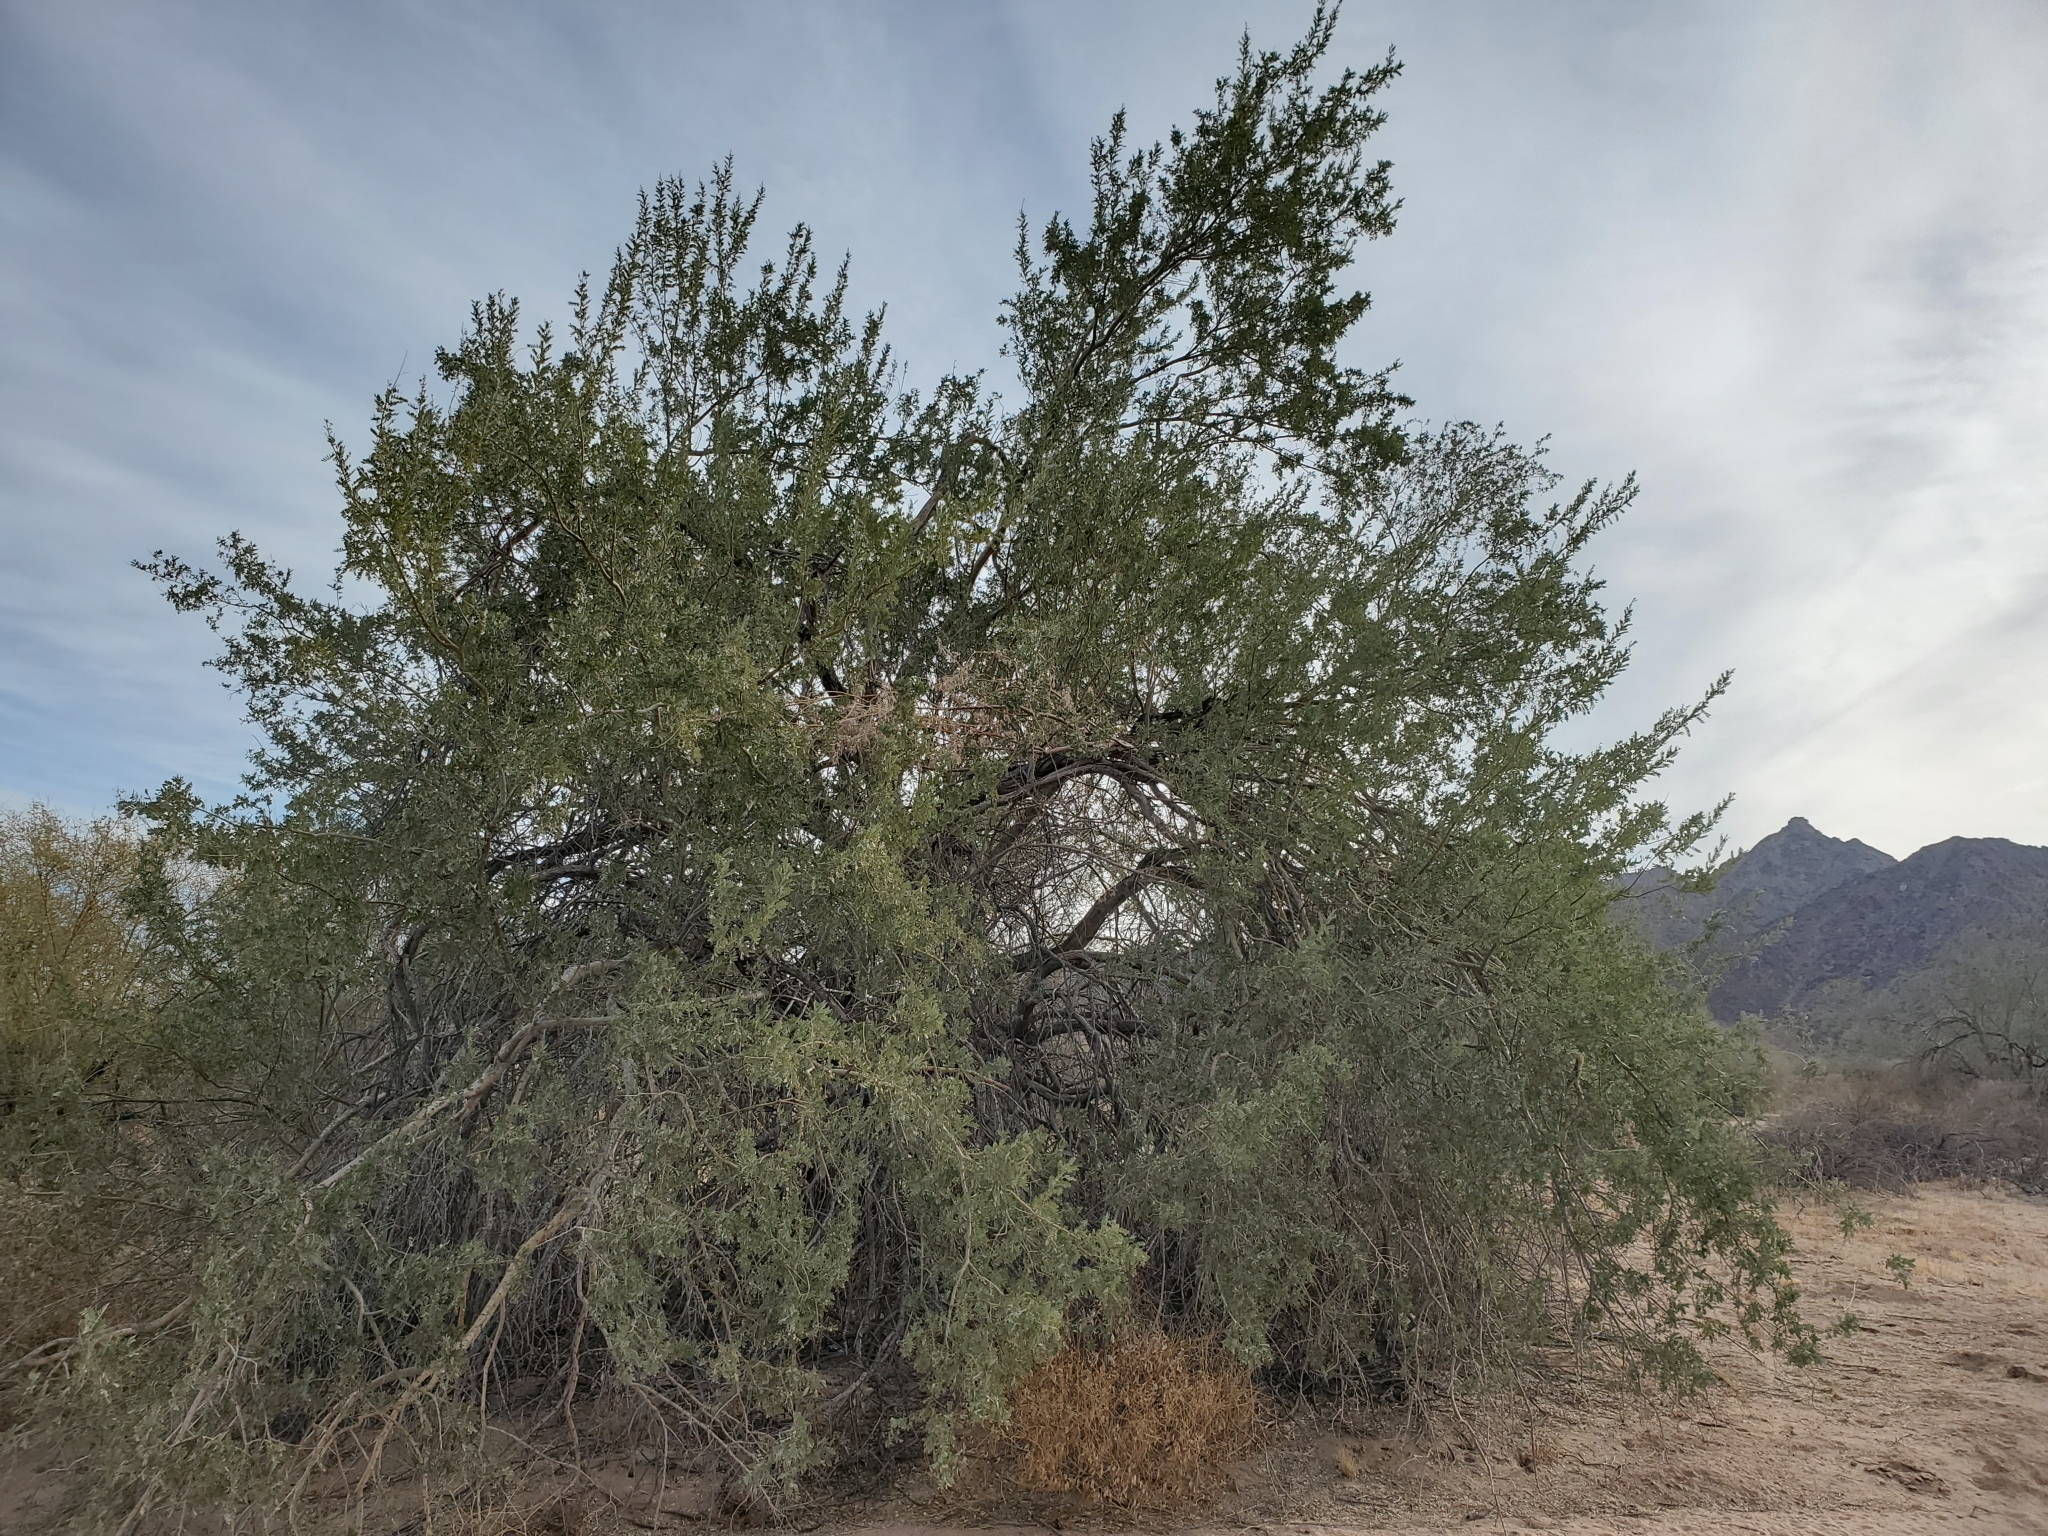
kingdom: Plantae
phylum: Tracheophyta
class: Magnoliopsida
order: Fabales
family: Fabaceae
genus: Olneya
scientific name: Olneya tesota
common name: Desert ironwood
